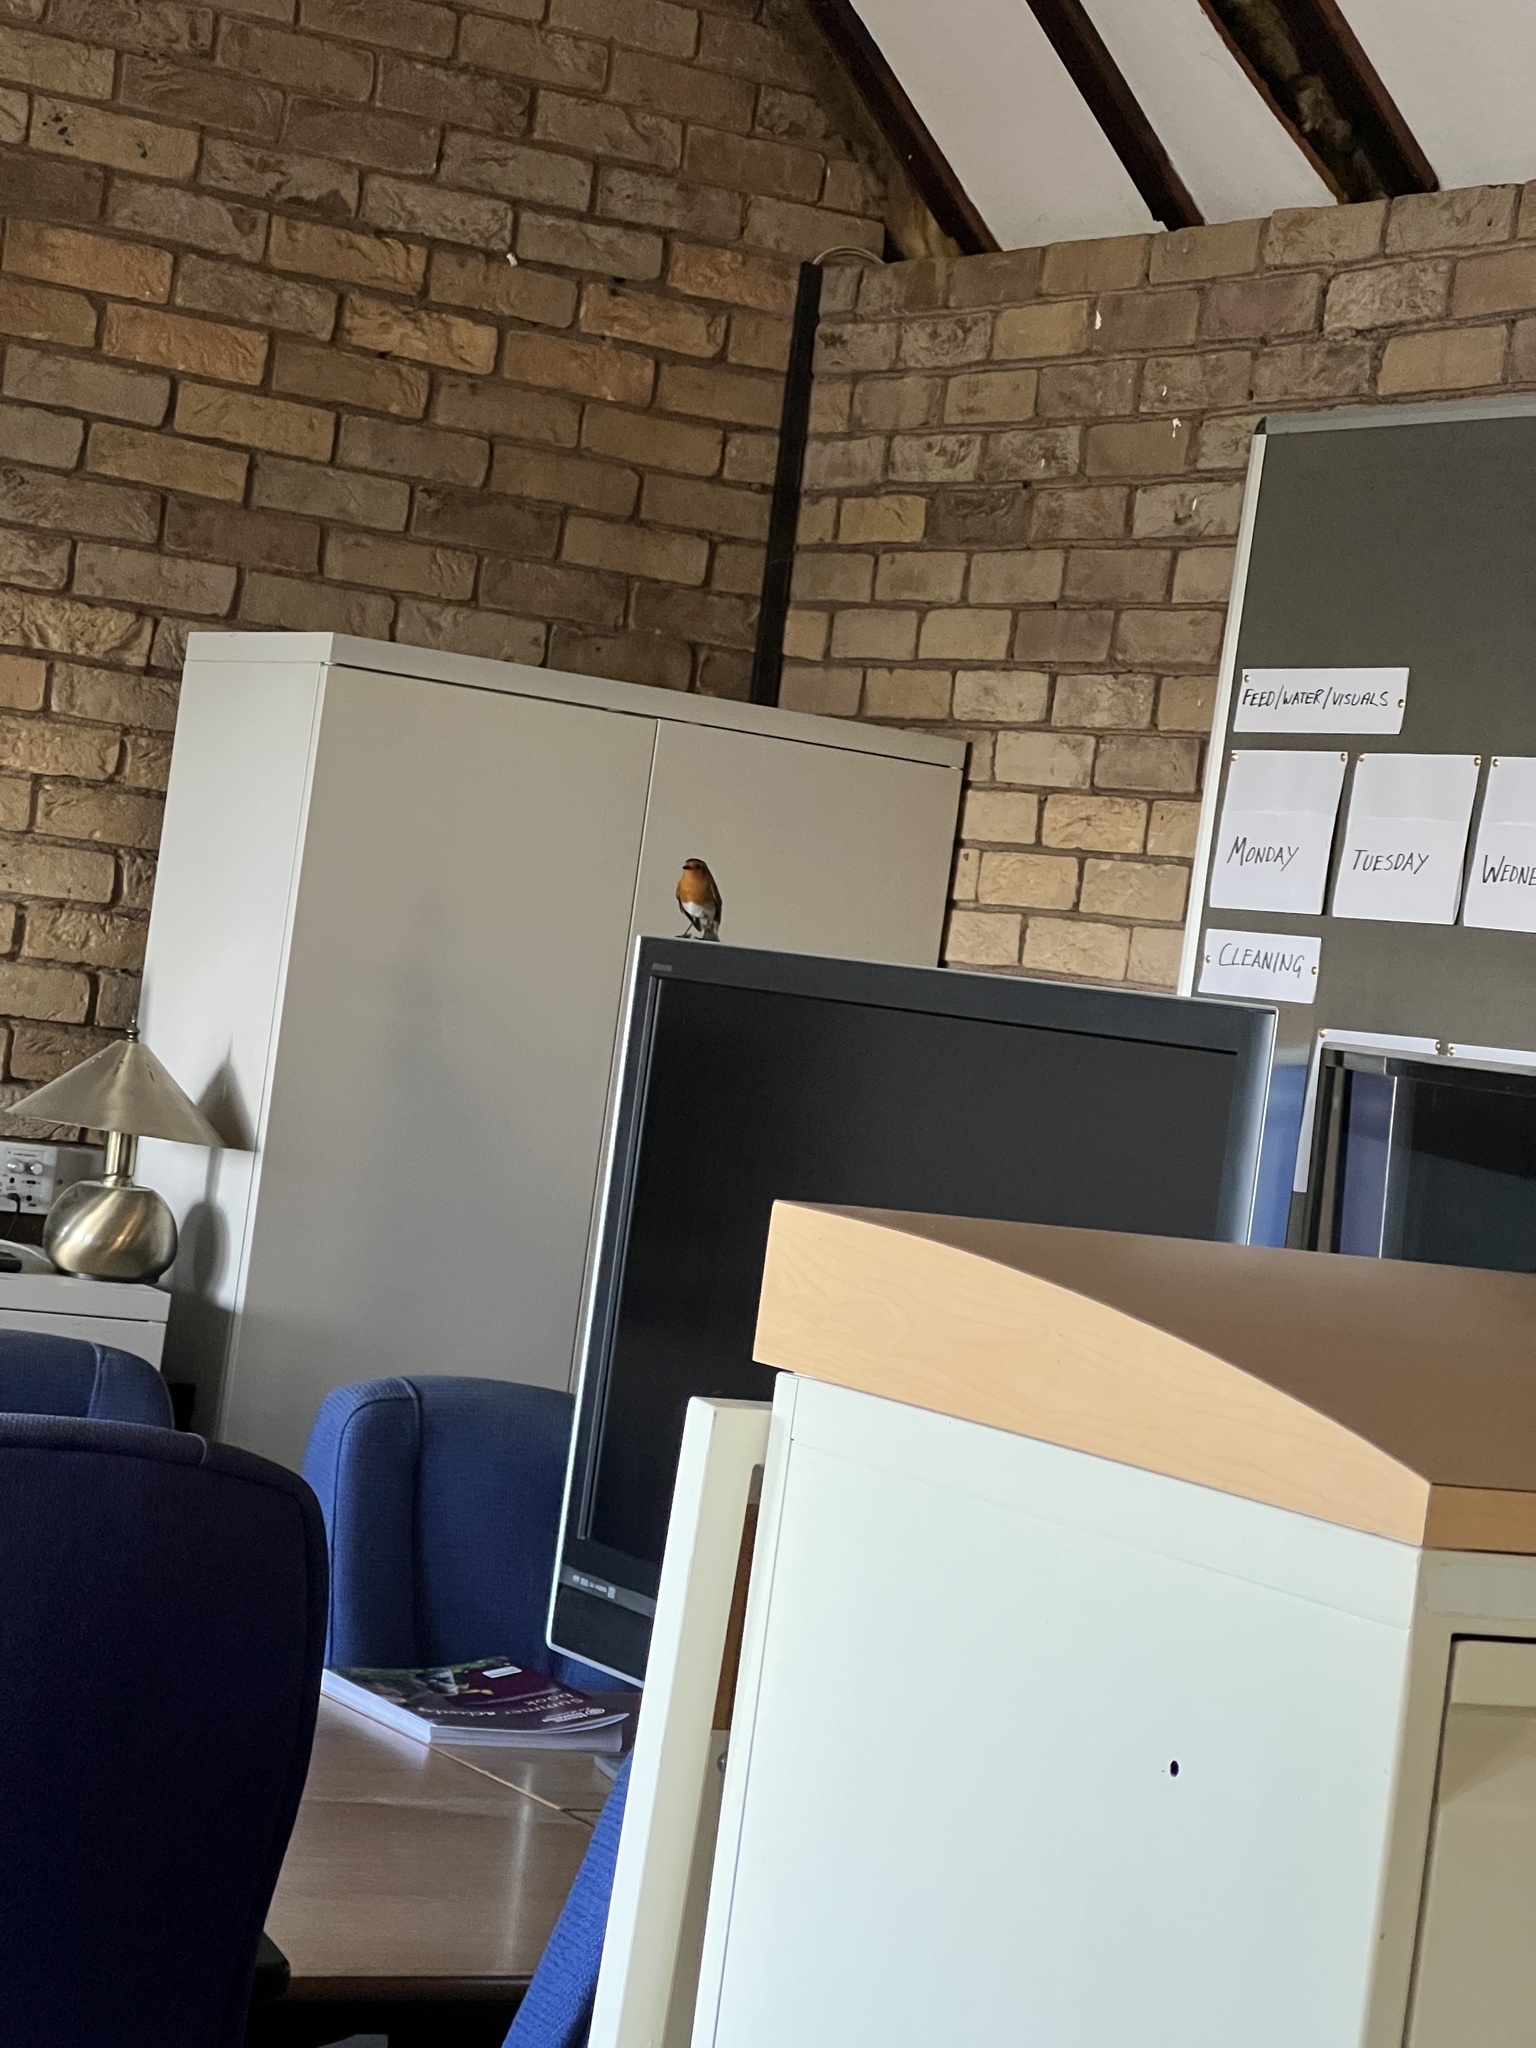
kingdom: Animalia
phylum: Chordata
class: Aves
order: Passeriformes
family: Muscicapidae
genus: Erithacus
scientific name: Erithacus rubecula
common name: European robin
